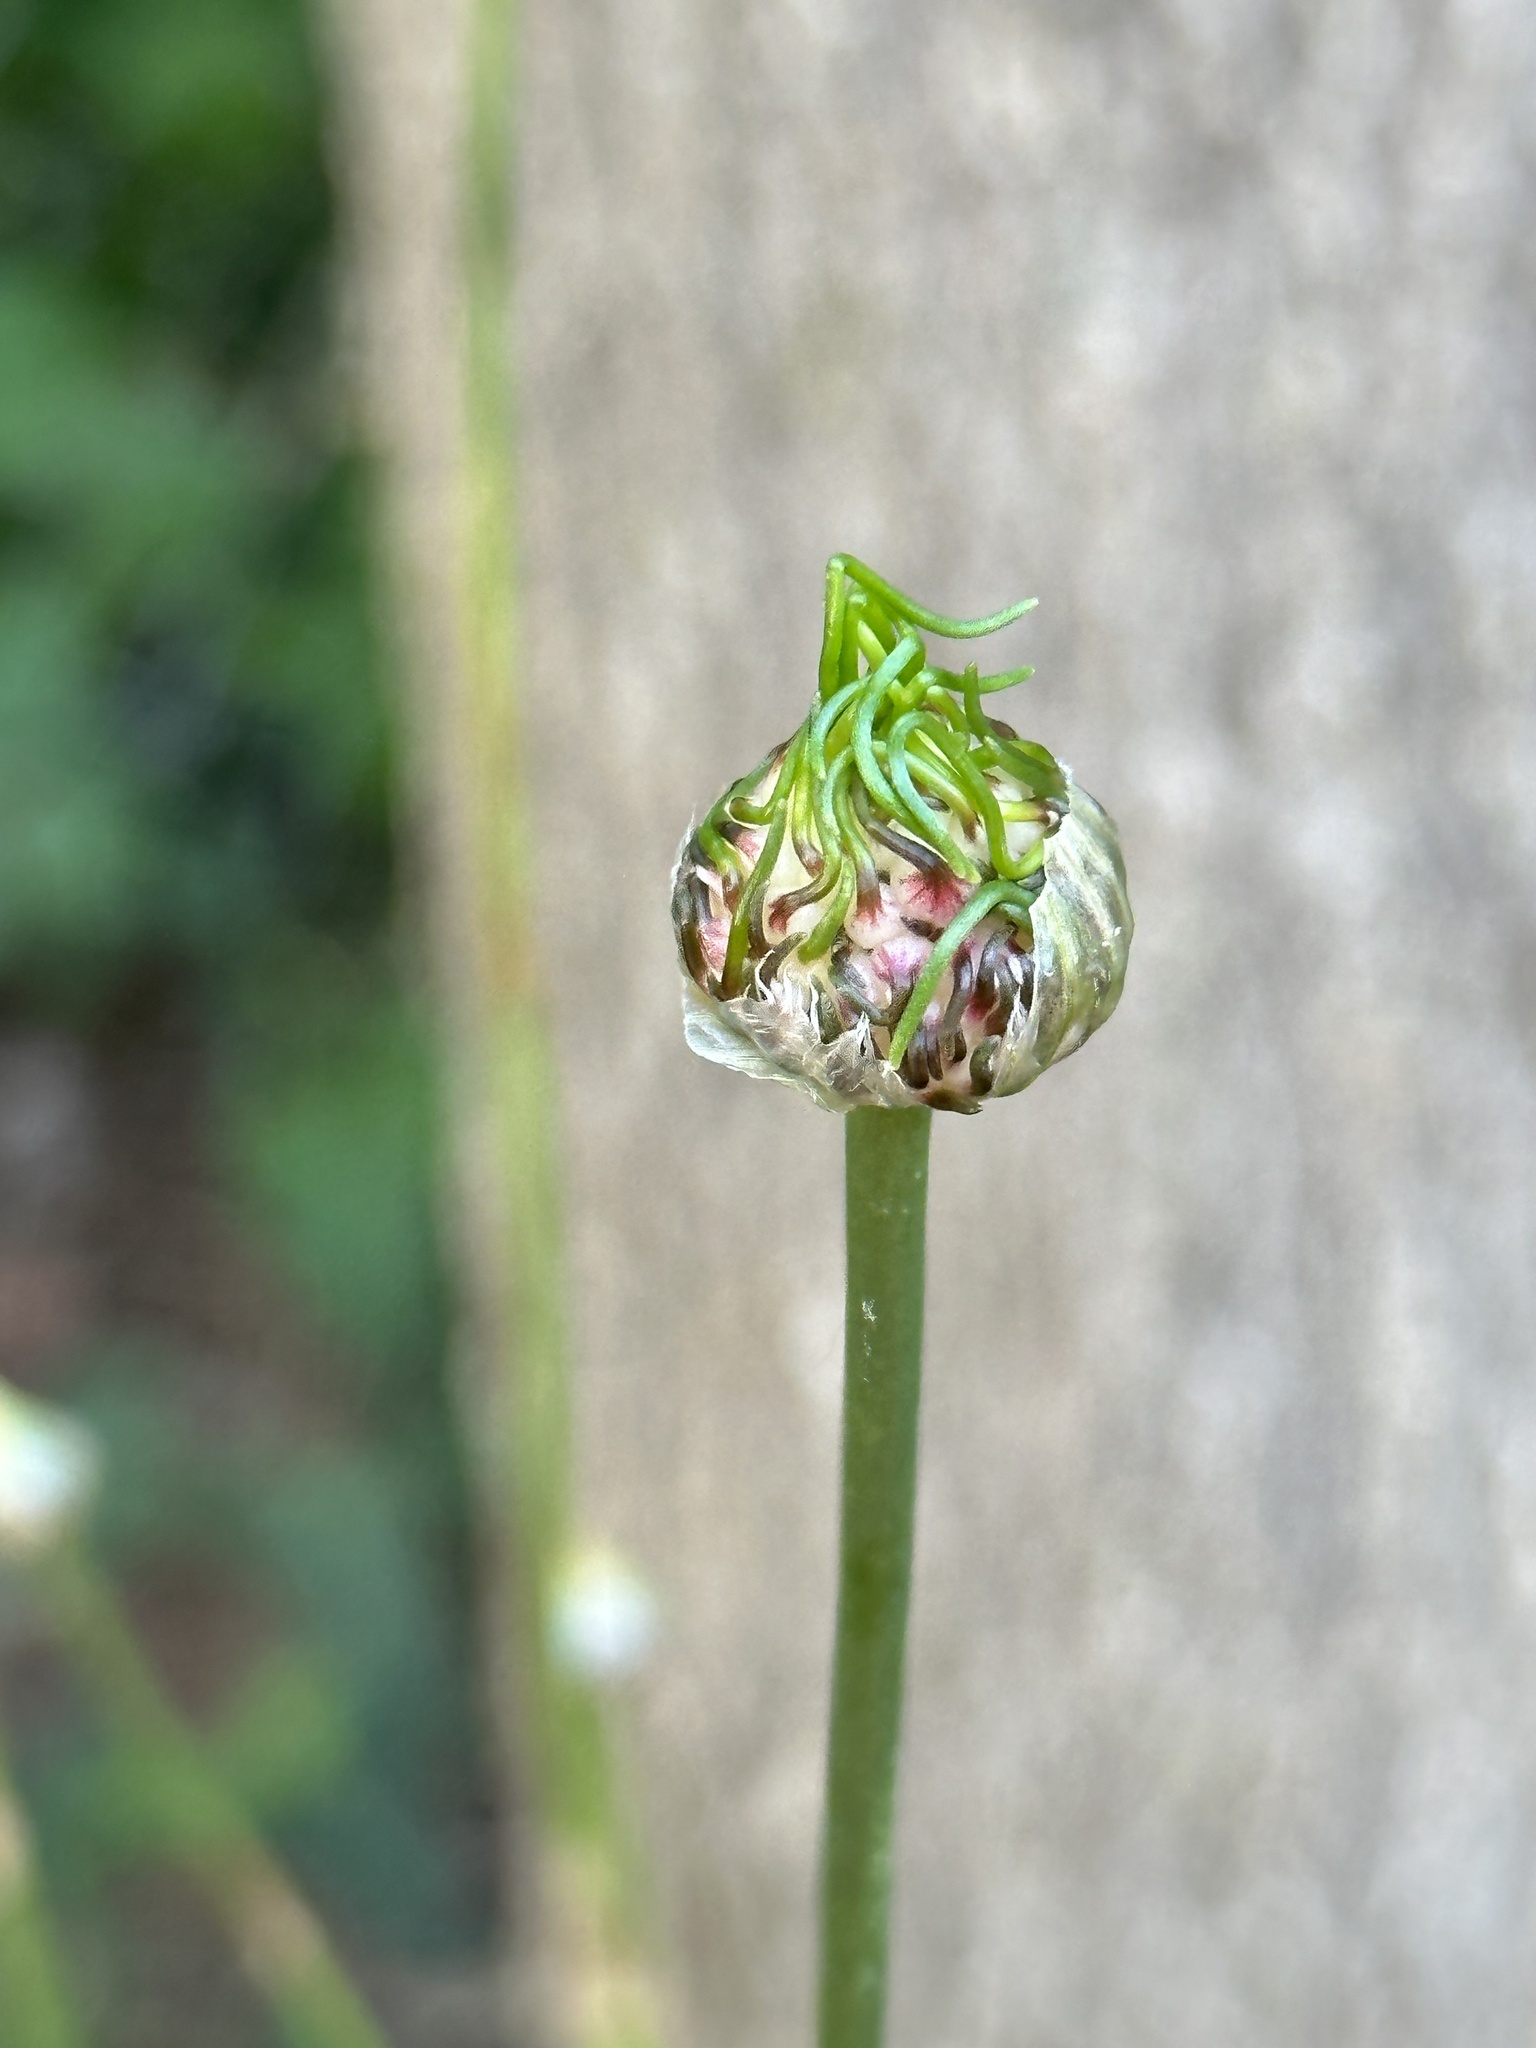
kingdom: Plantae
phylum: Tracheophyta
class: Liliopsida
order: Asparagales
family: Amaryllidaceae
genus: Allium
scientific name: Allium vineale
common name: Crow garlic
